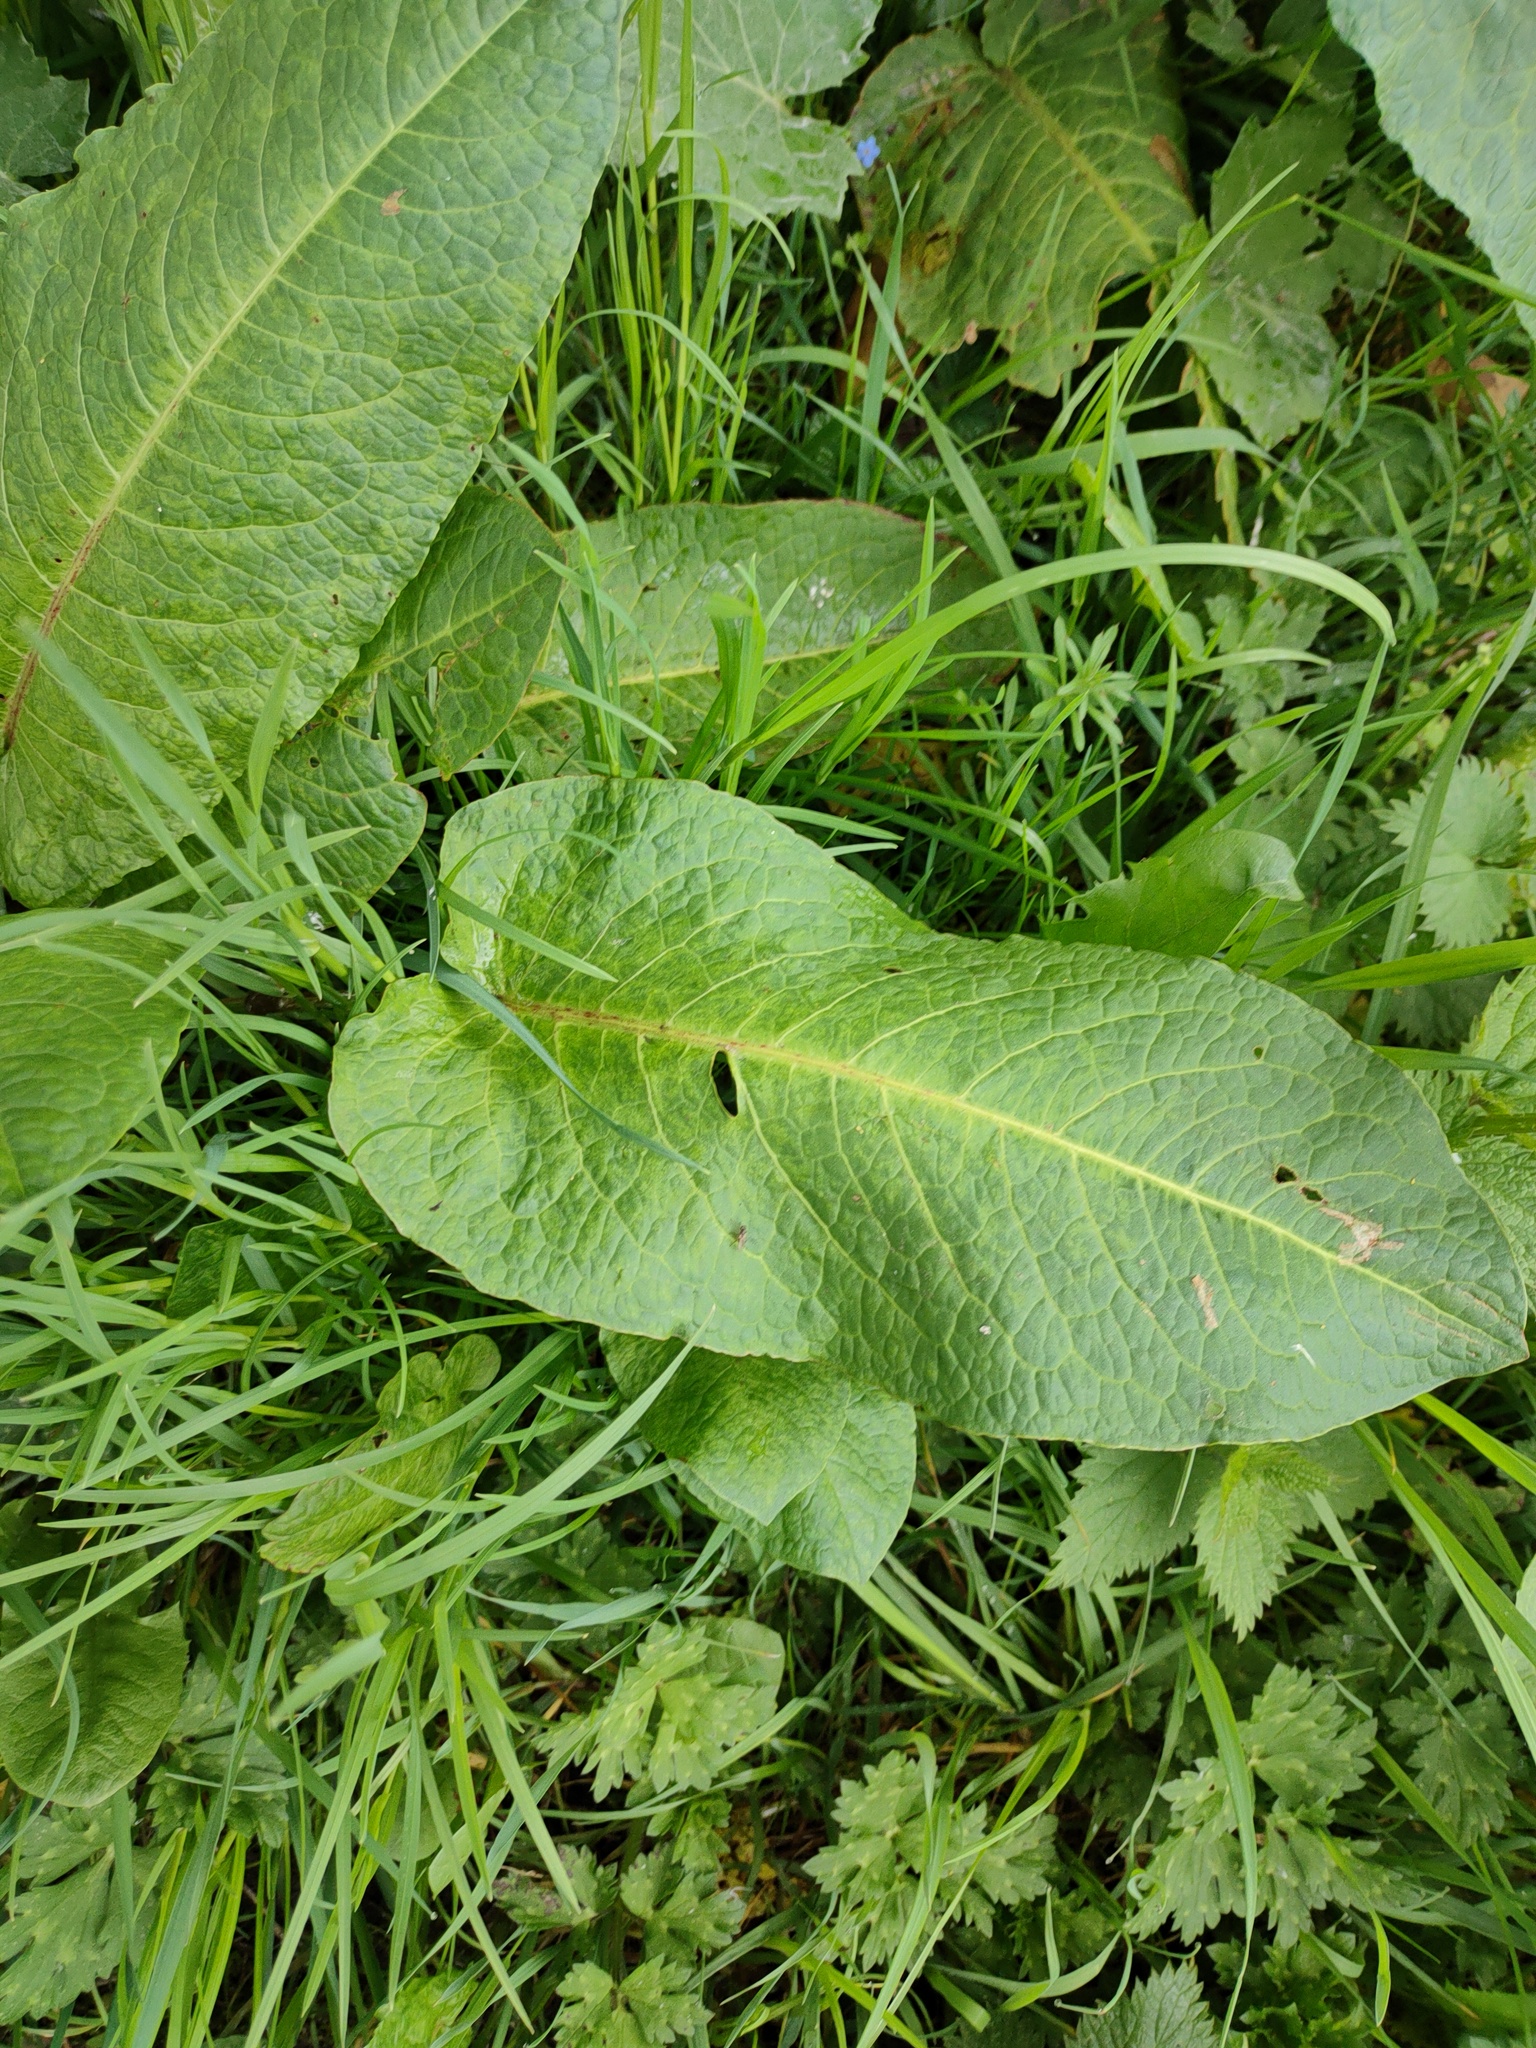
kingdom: Plantae
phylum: Tracheophyta
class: Magnoliopsida
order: Caryophyllales
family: Polygonaceae
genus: Rumex
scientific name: Rumex obtusifolius
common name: Bitter dock
